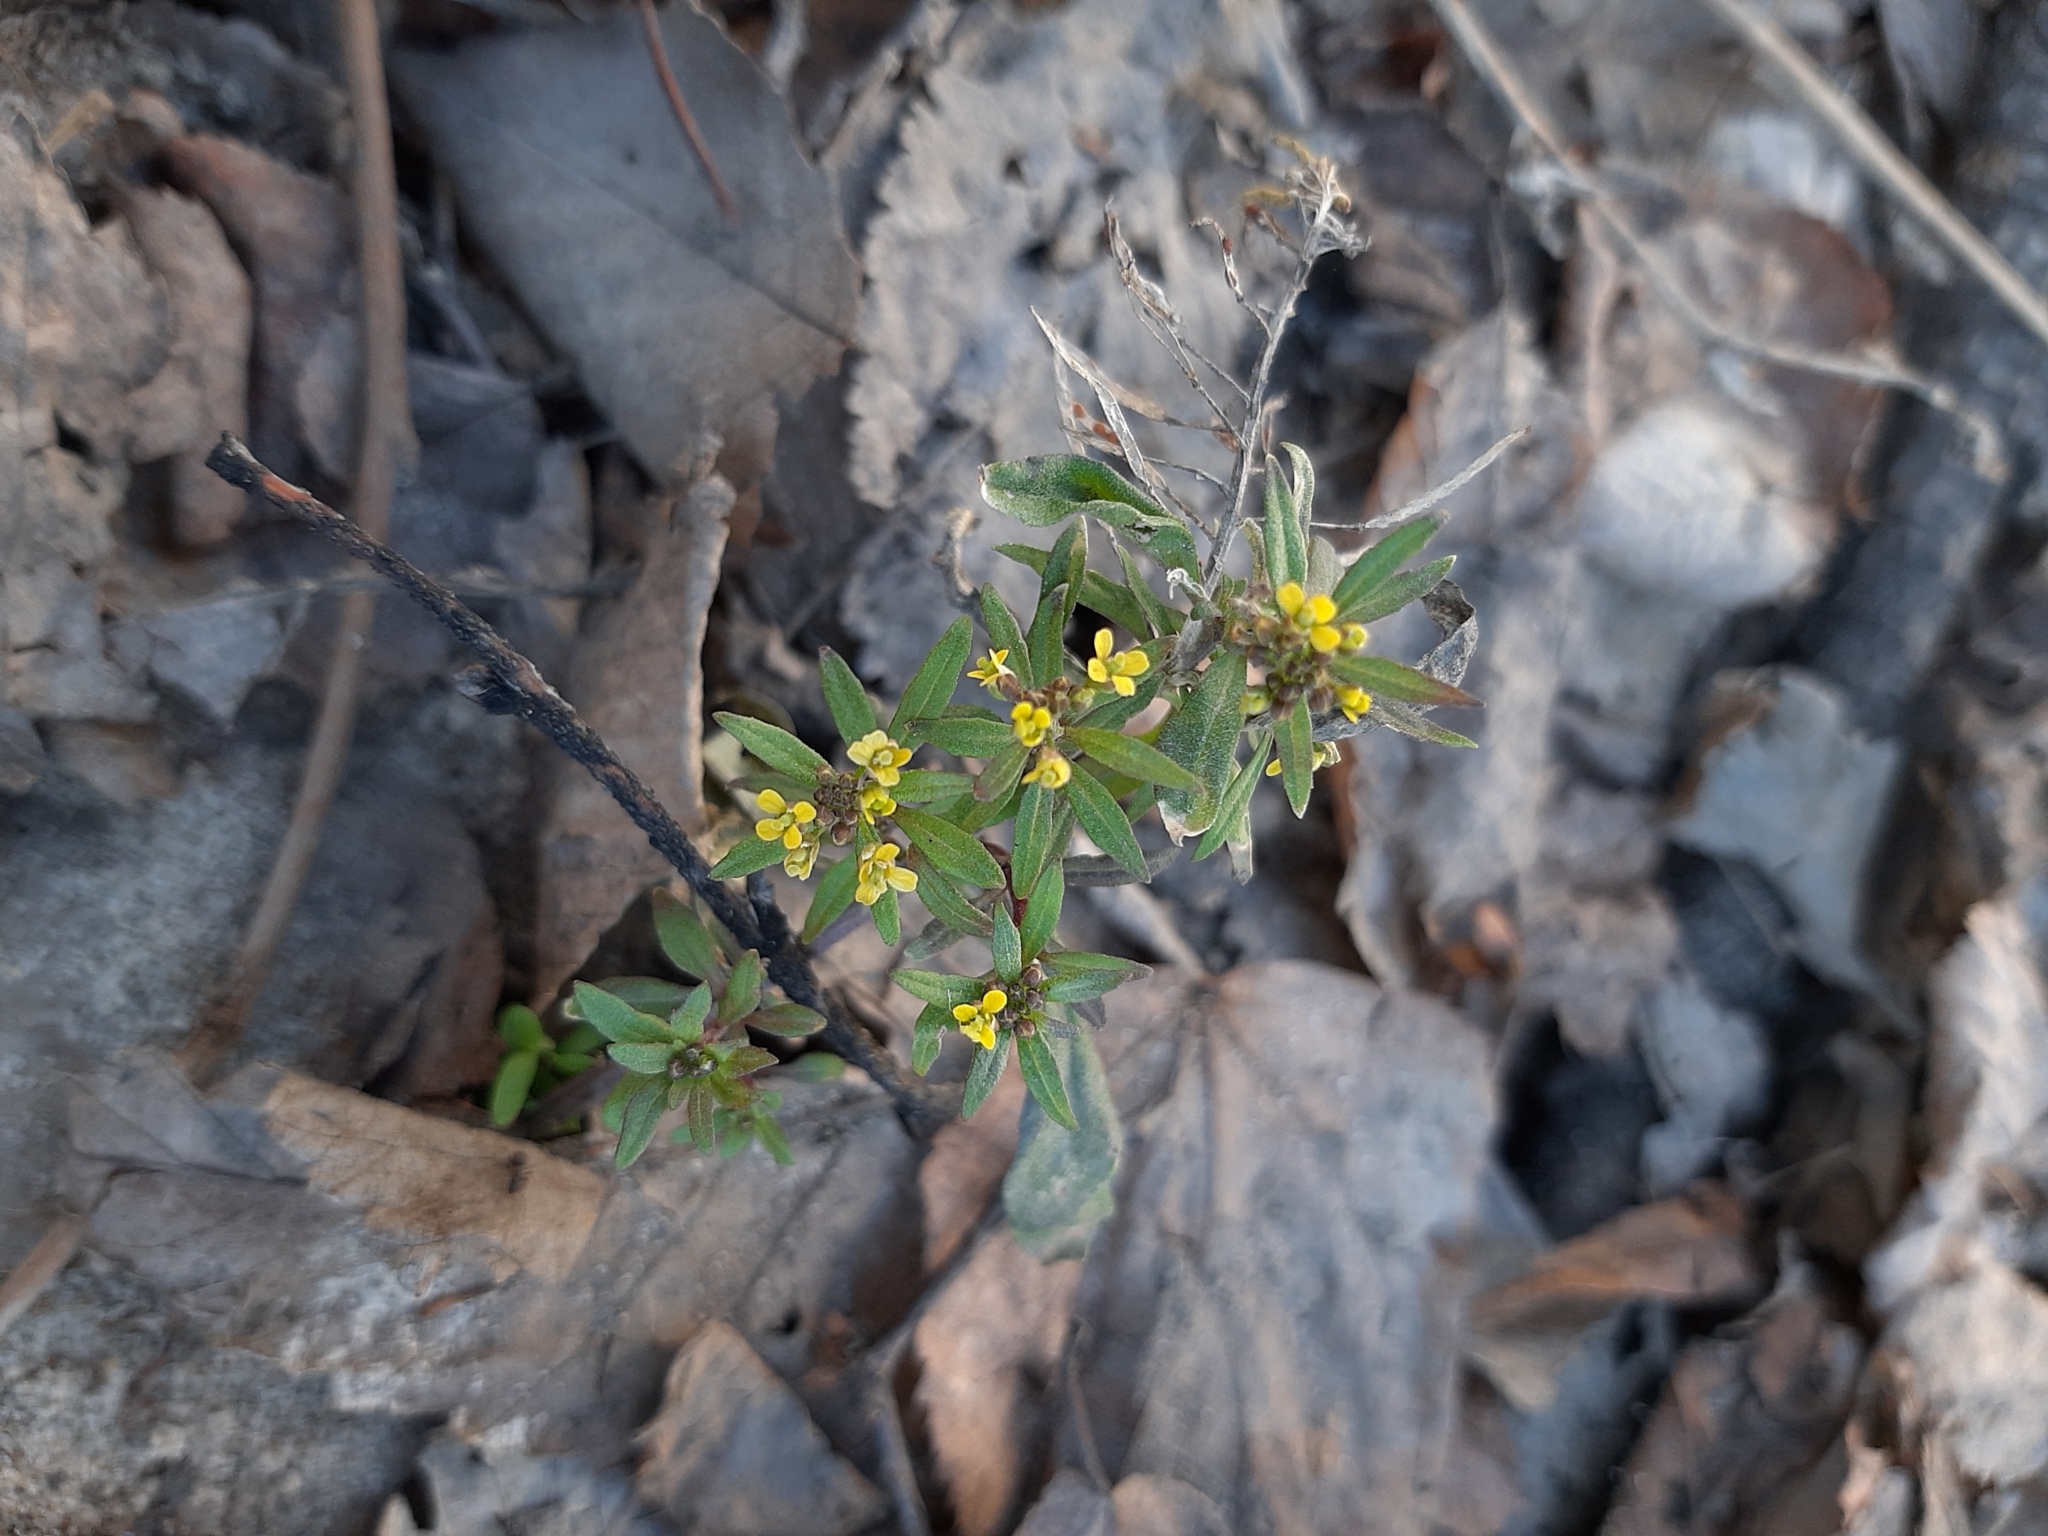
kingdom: Plantae
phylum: Tracheophyta
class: Magnoliopsida
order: Brassicales
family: Brassicaceae
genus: Erysimum
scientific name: Erysimum cheiranthoides
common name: Treacle mustard
